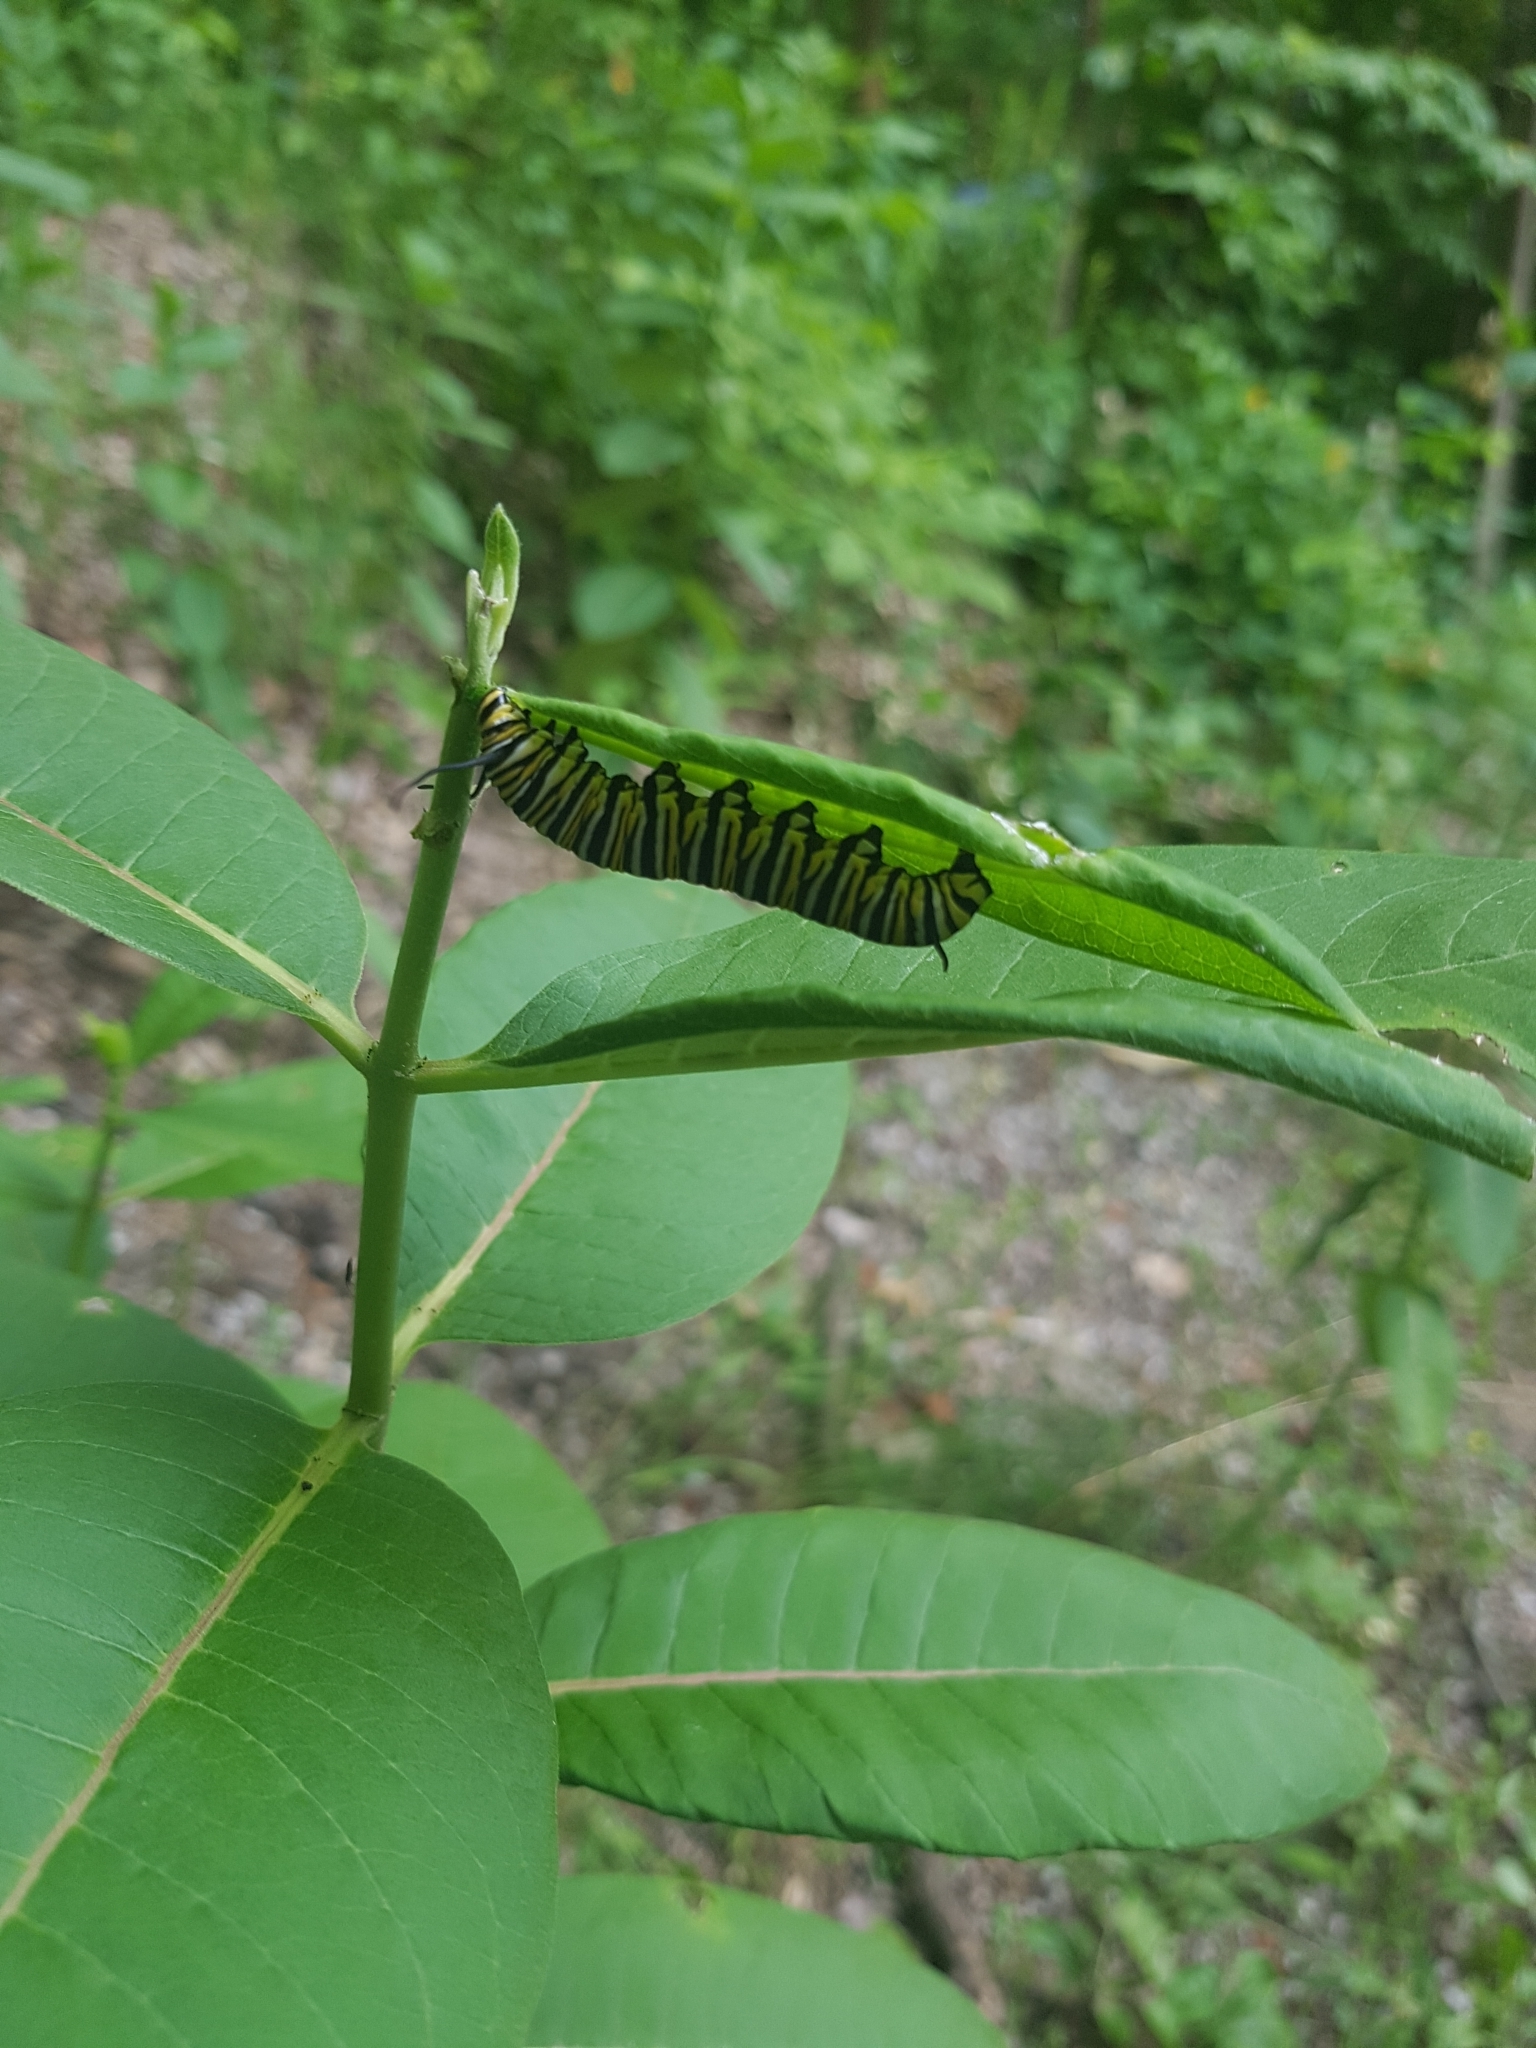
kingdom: Animalia
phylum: Arthropoda
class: Insecta
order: Lepidoptera
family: Nymphalidae
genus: Danaus
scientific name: Danaus plexippus
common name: Monarch
